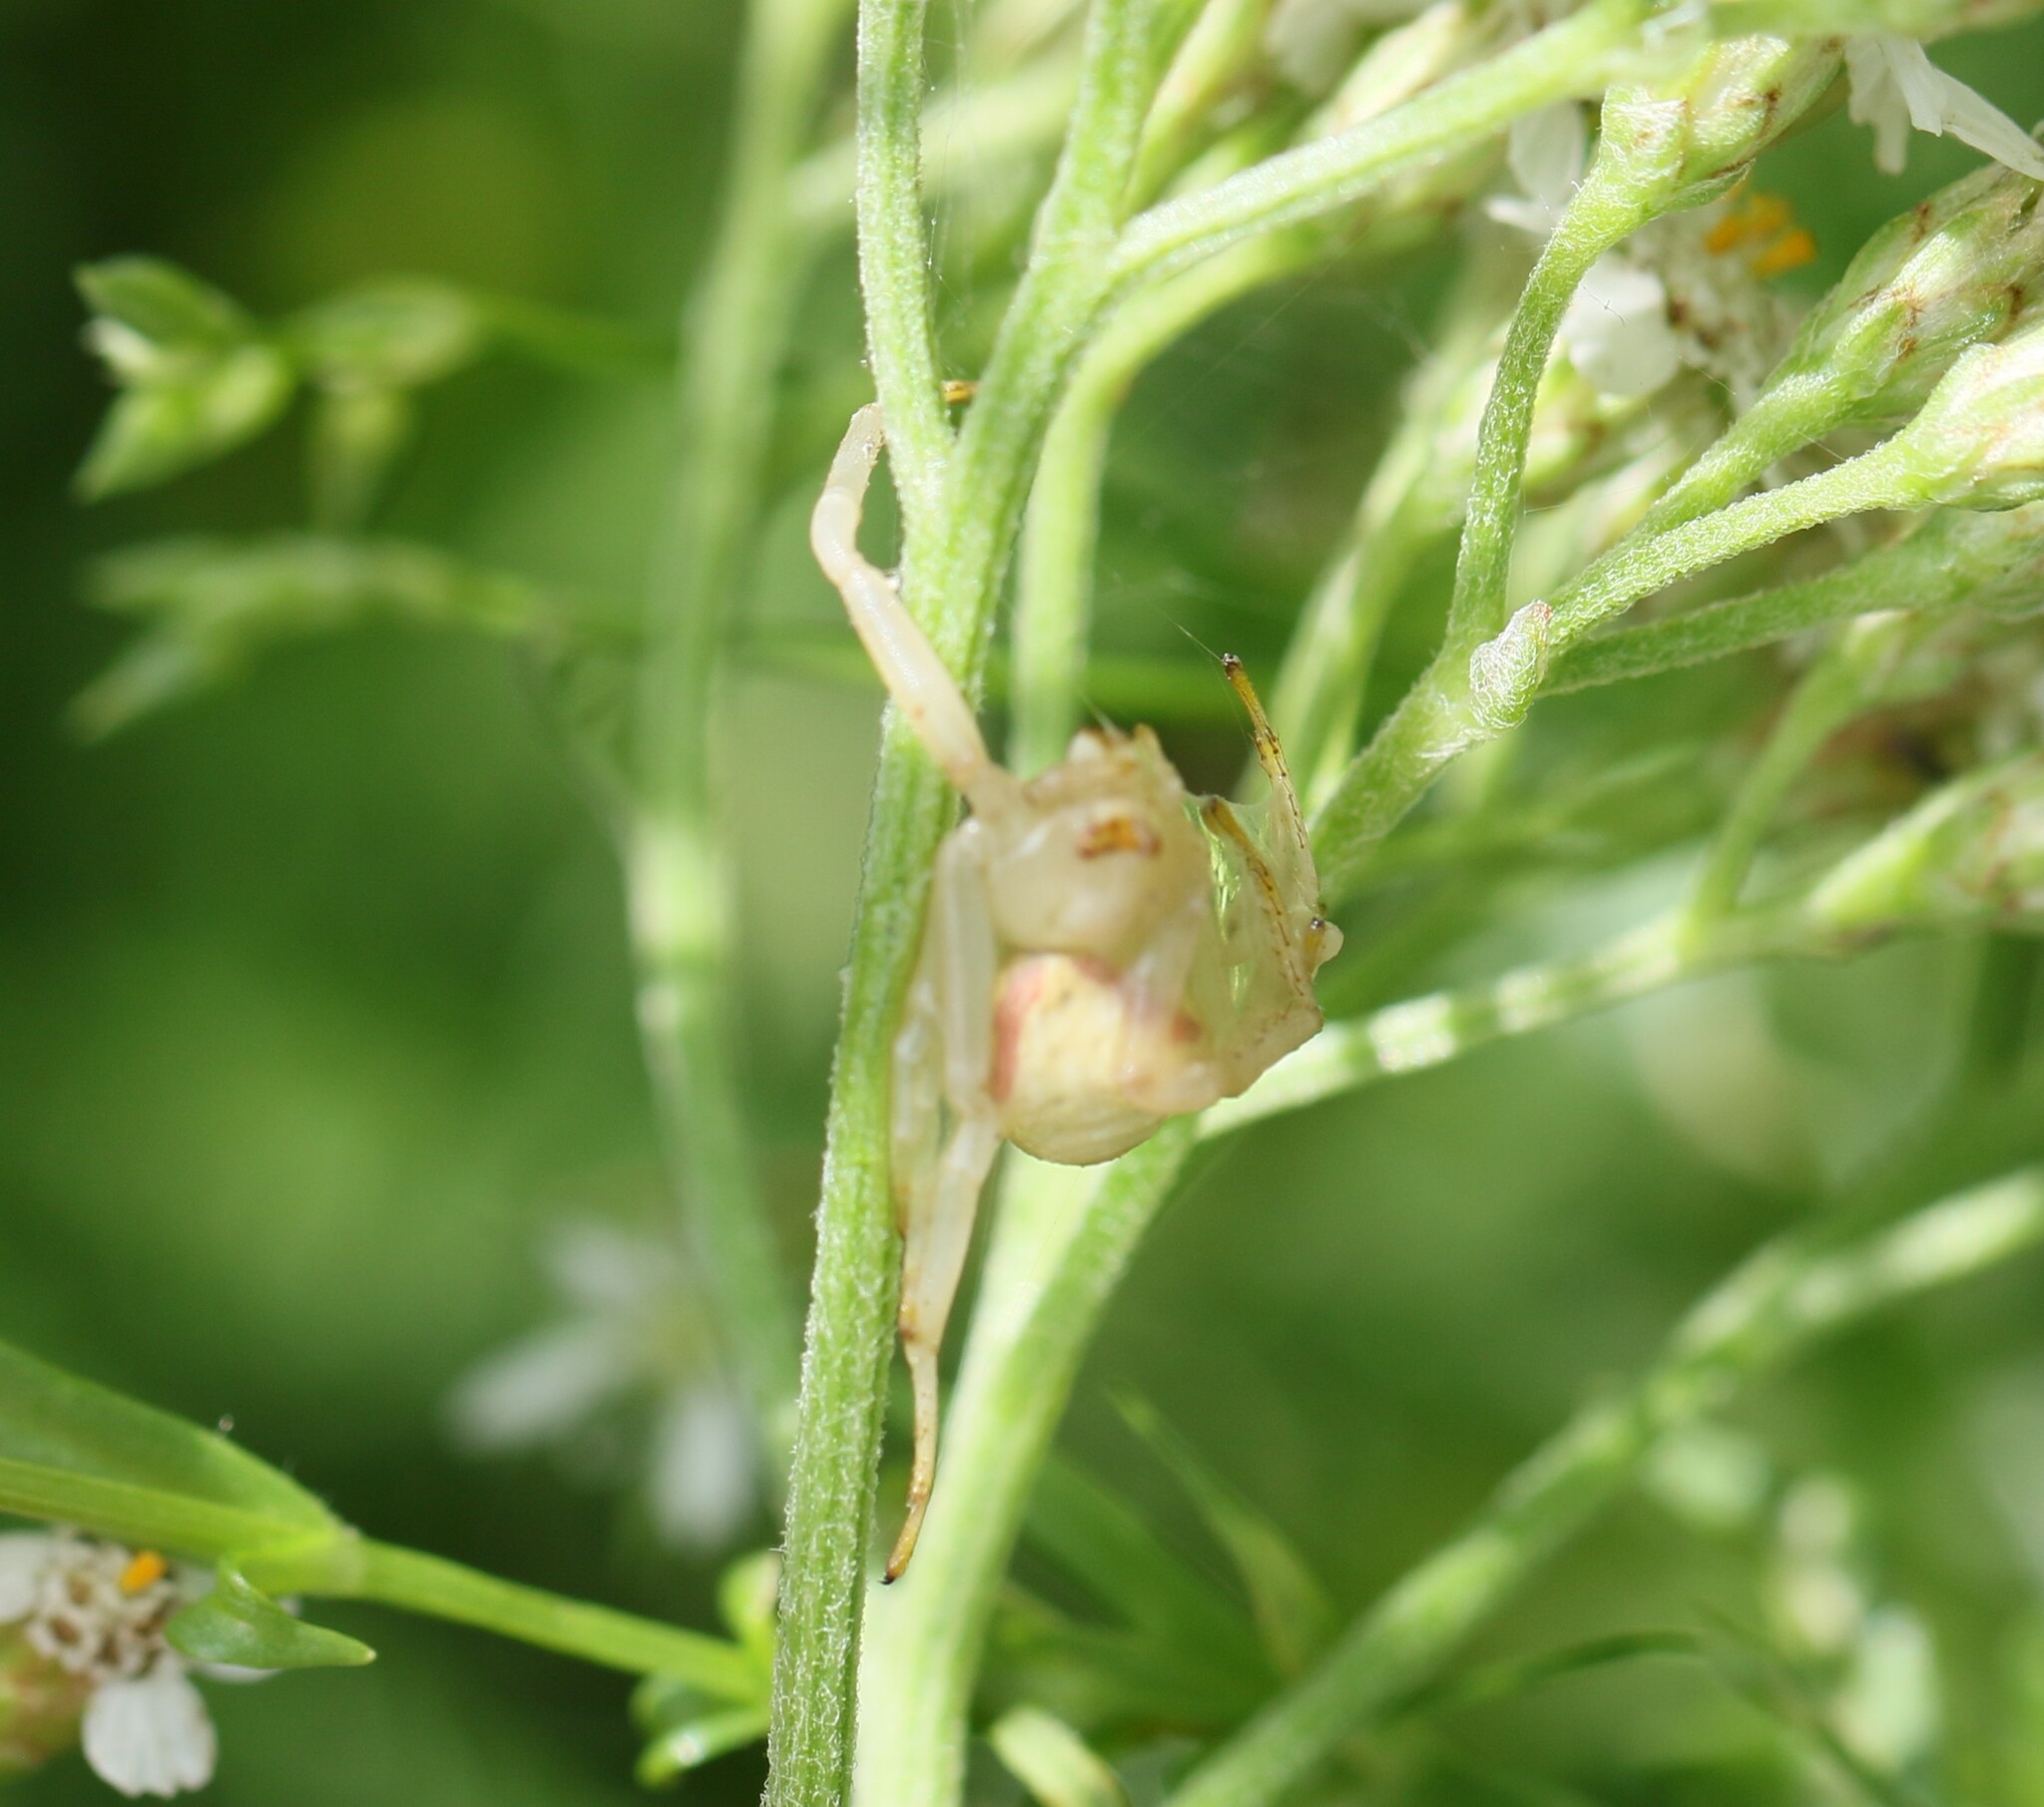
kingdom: Animalia
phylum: Arthropoda
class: Arachnida
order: Araneae
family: Thomisidae
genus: Misumena
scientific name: Misumena vatia
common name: Goldenrod crab spider
